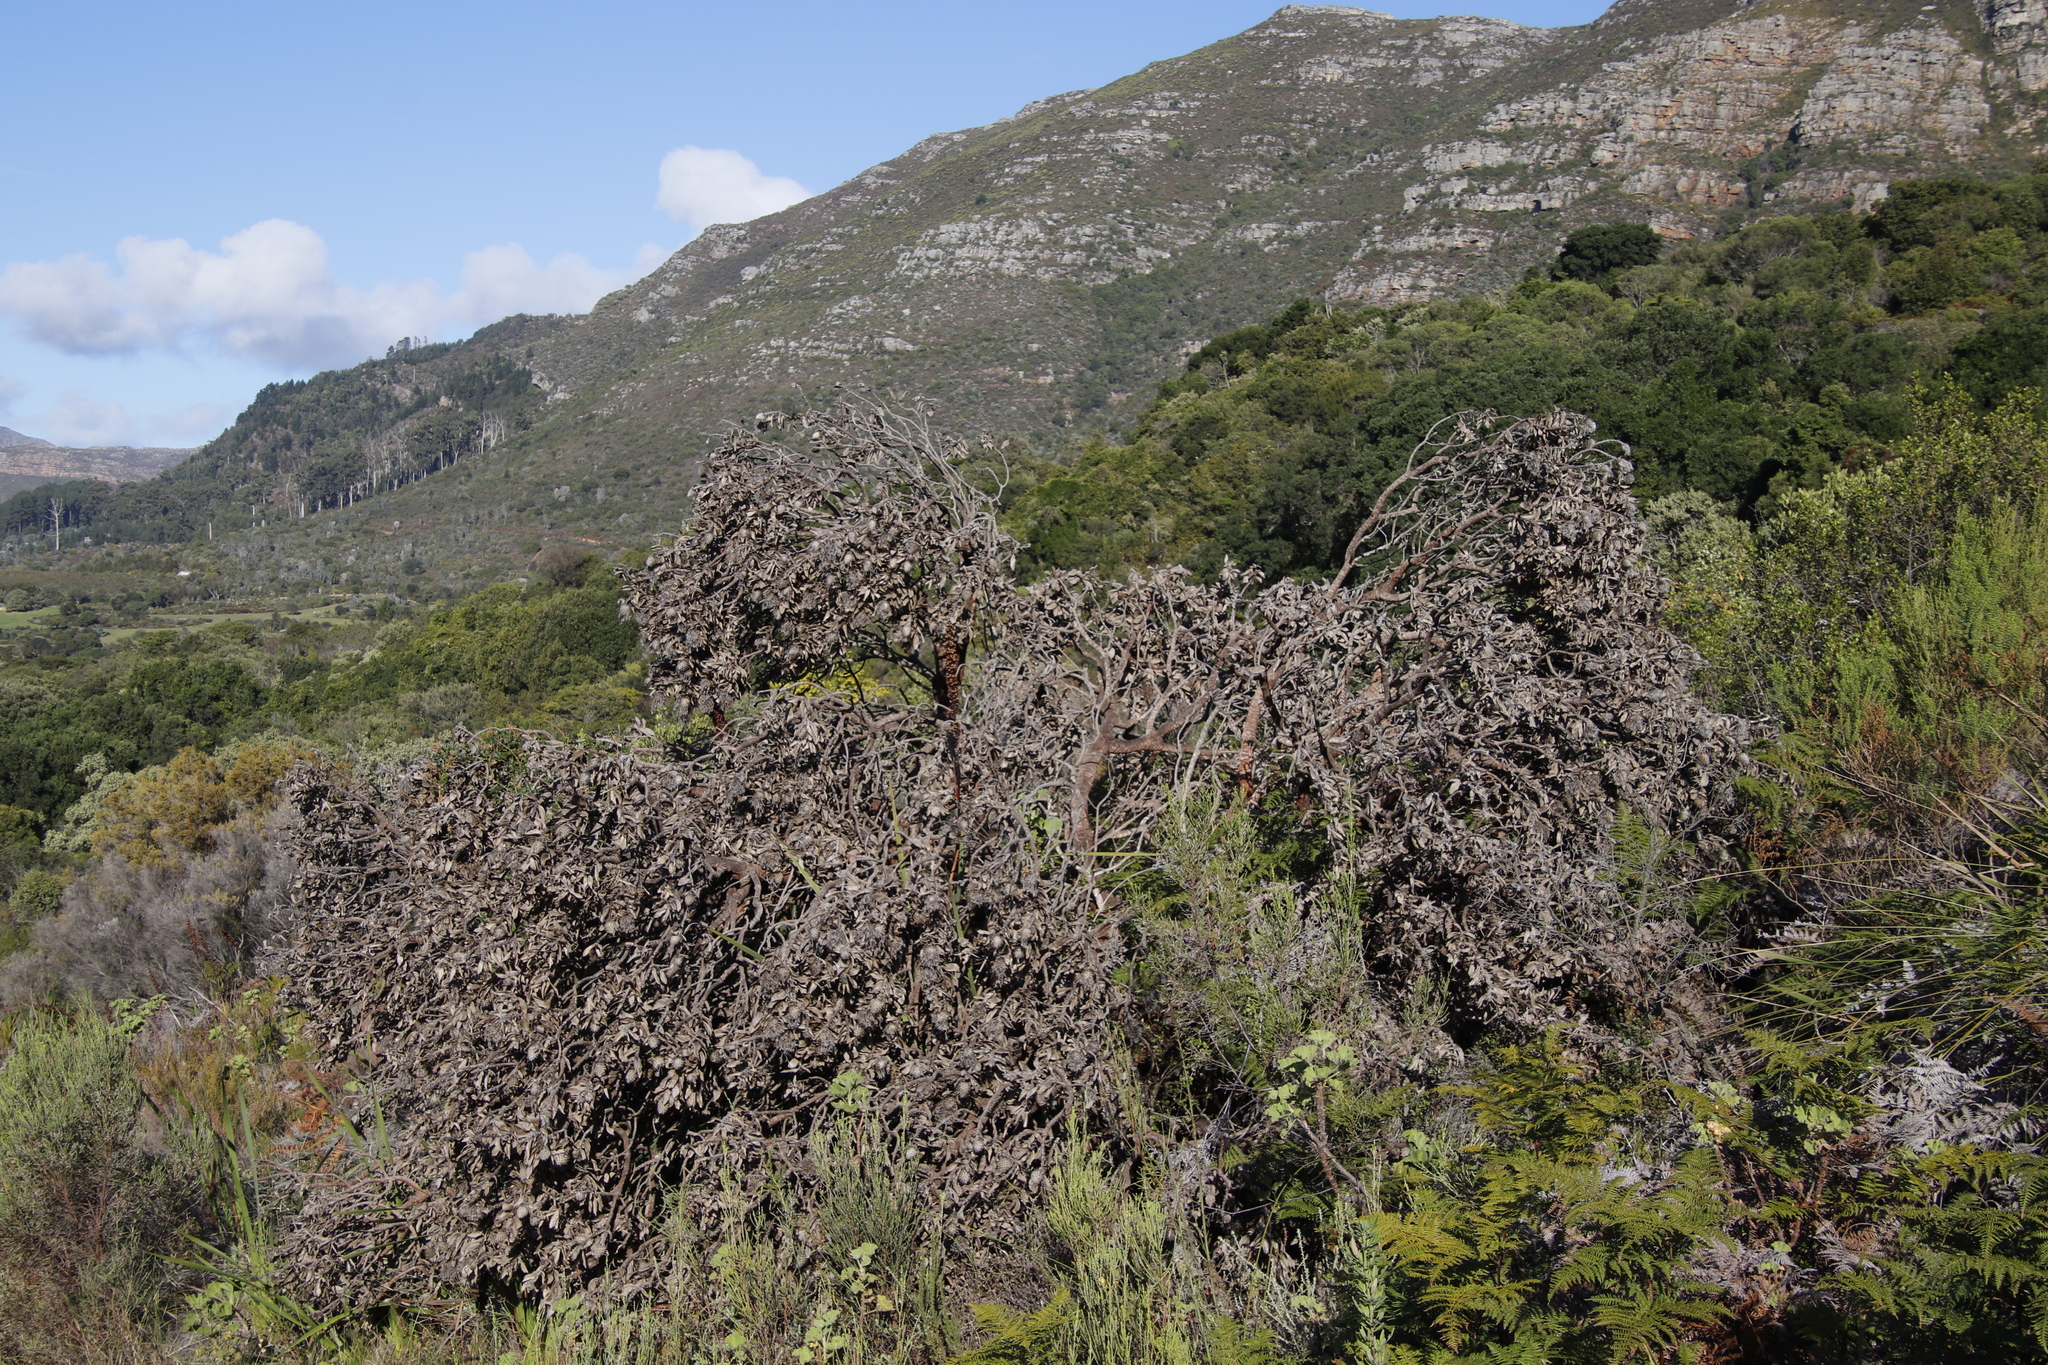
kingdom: Plantae
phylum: Tracheophyta
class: Magnoliopsida
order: Proteales
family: Proteaceae
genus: Leucospermum
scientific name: Leucospermum conocarpodendron
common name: Tree pincushion
